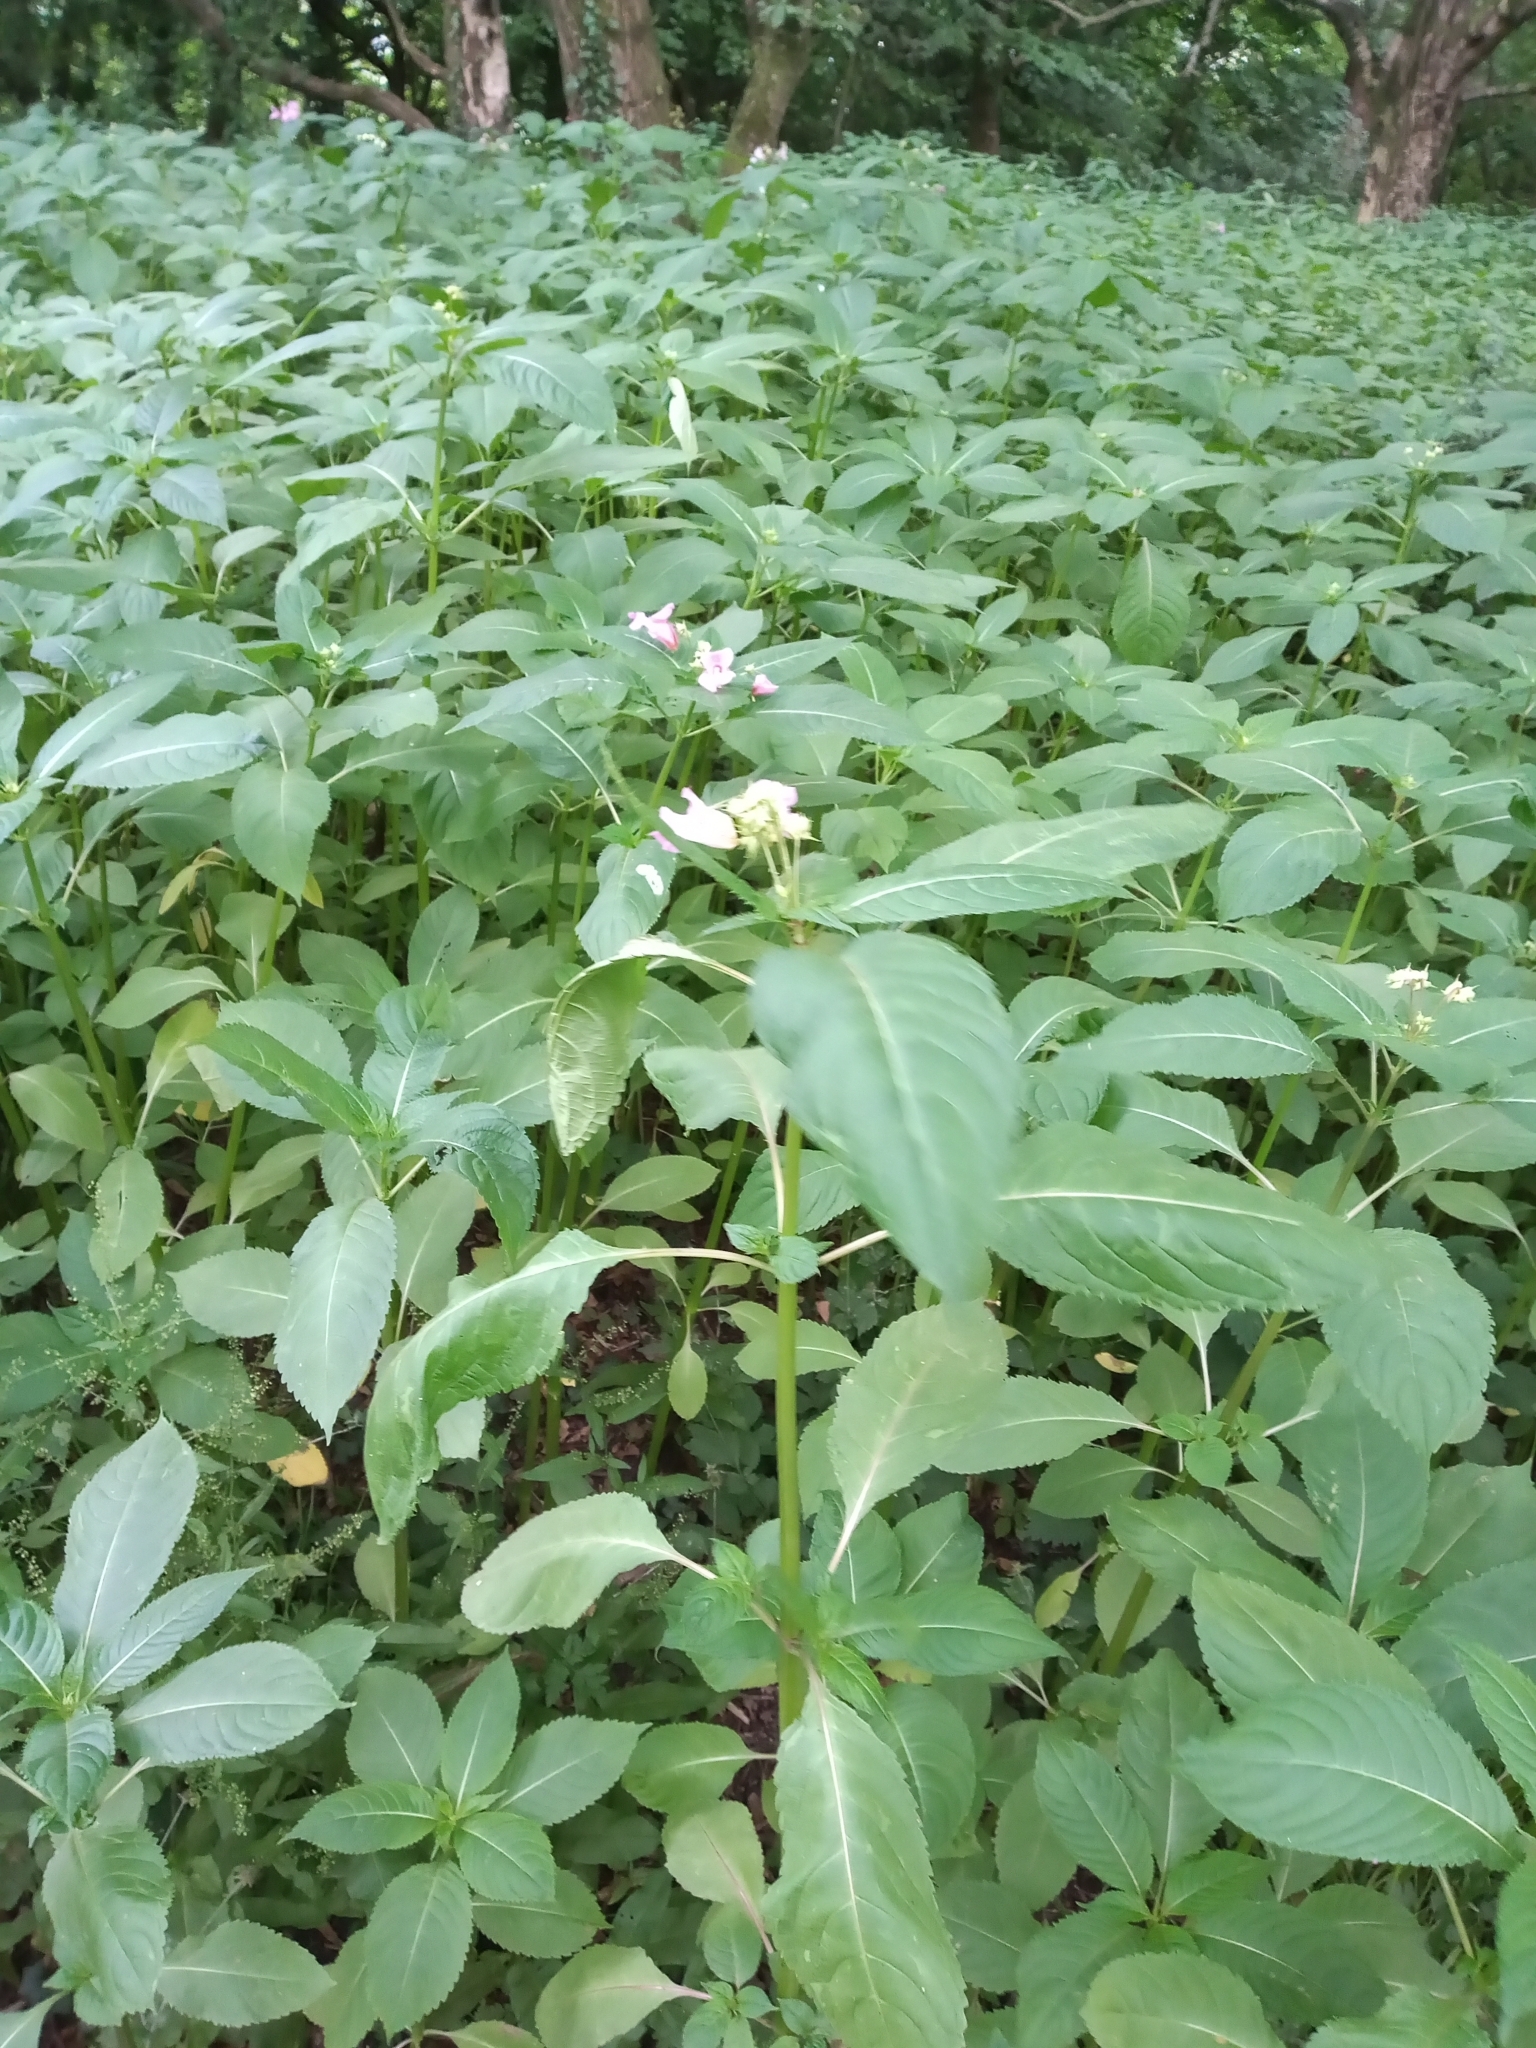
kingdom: Plantae
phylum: Tracheophyta
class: Magnoliopsida
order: Ericales
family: Balsaminaceae
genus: Impatiens
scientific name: Impatiens glandulifera
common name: Himalayan balsam
